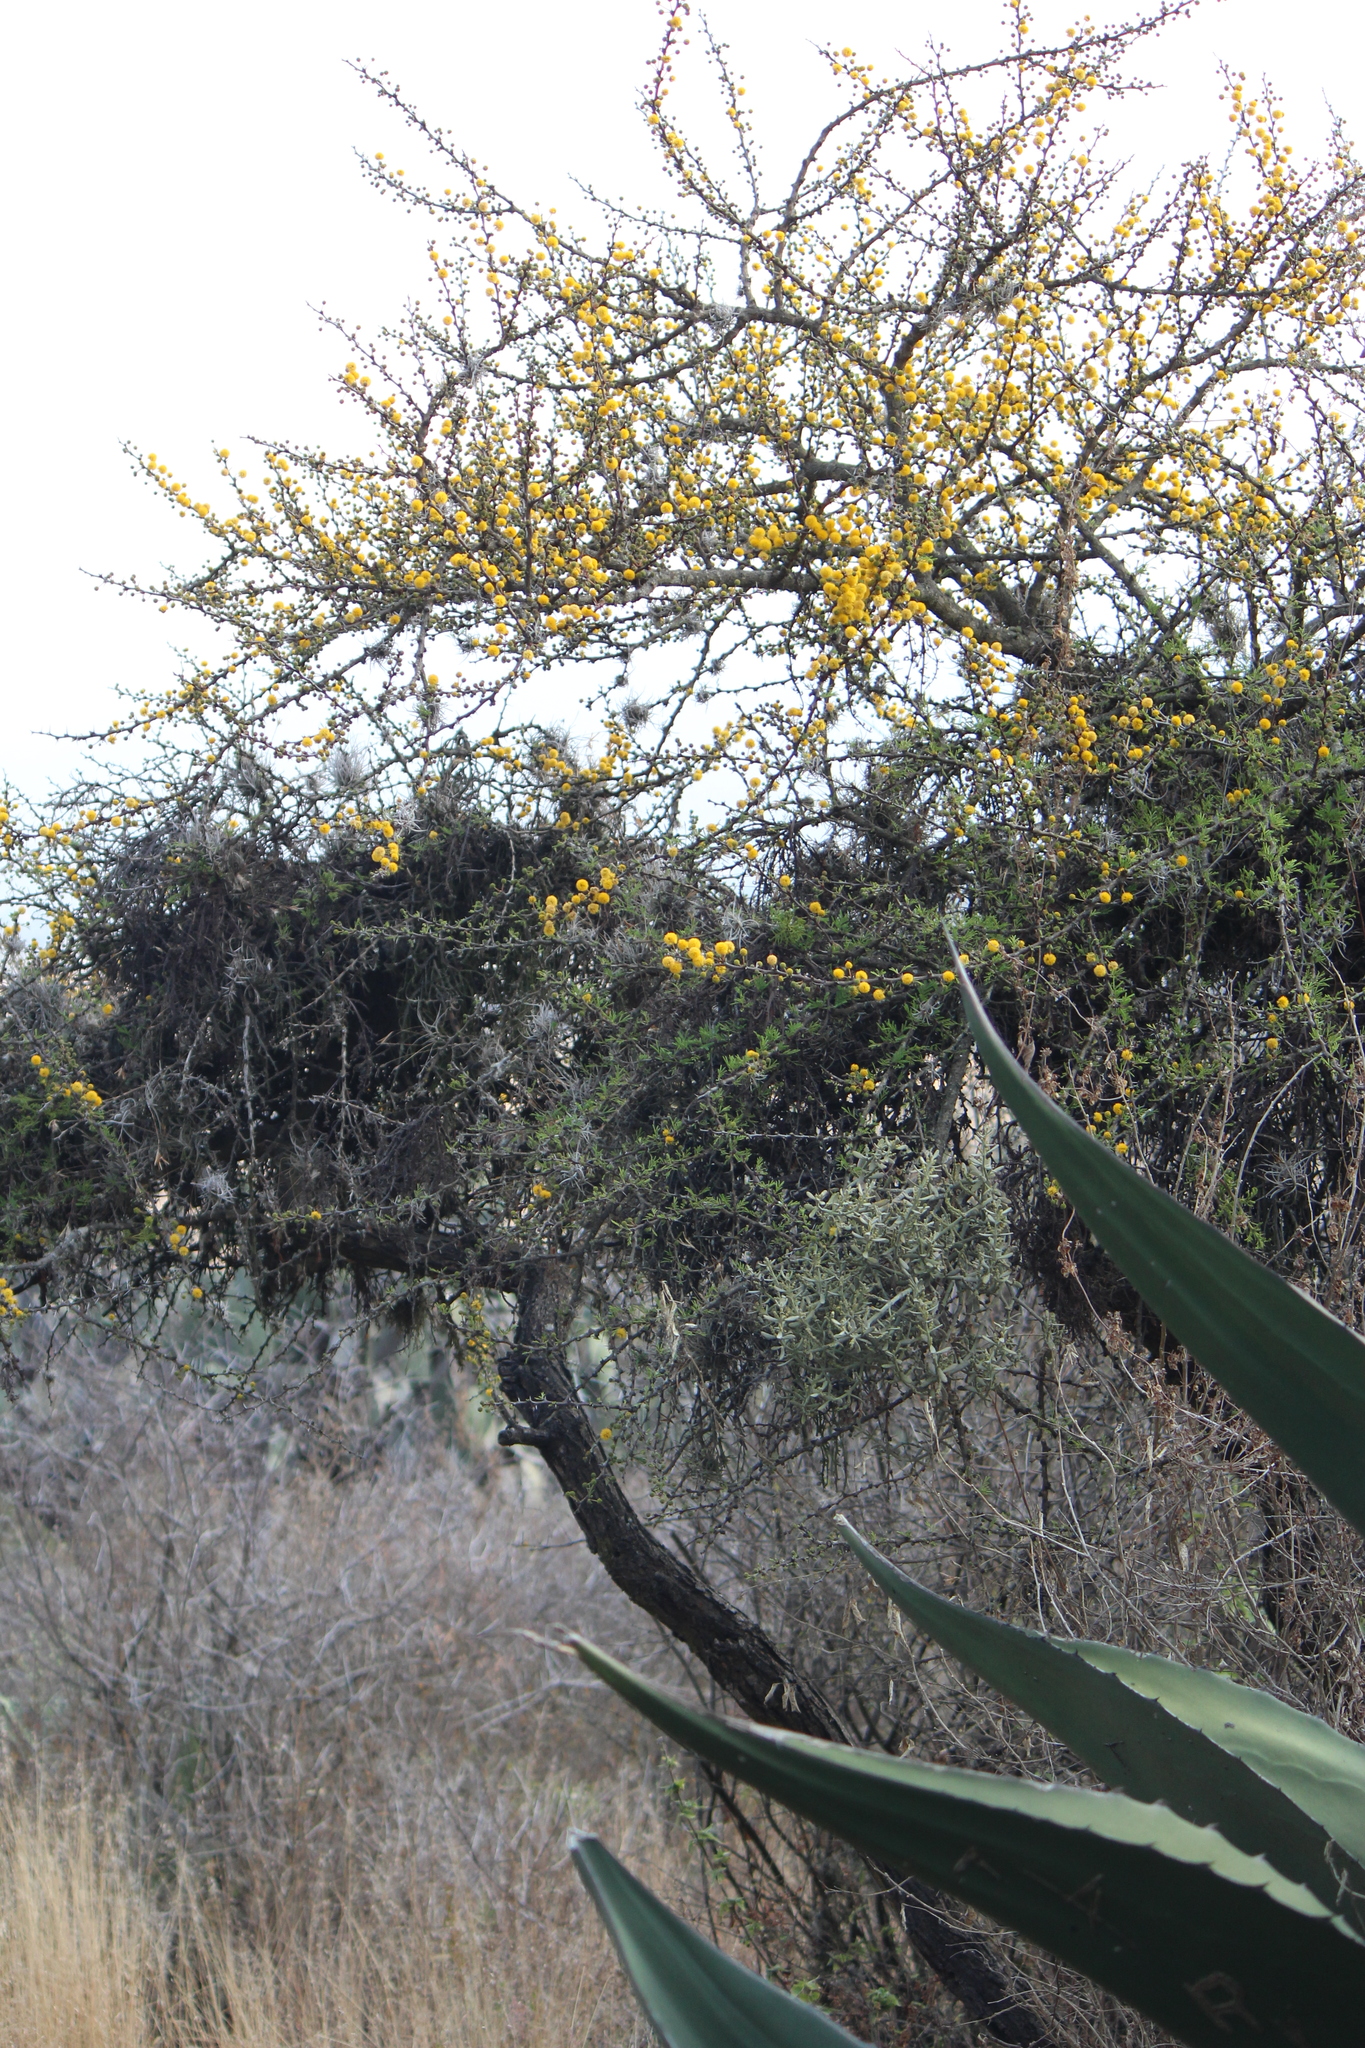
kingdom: Plantae
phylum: Tracheophyta
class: Magnoliopsida
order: Fabales
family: Fabaceae
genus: Vachellia
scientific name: Vachellia schaffneri
